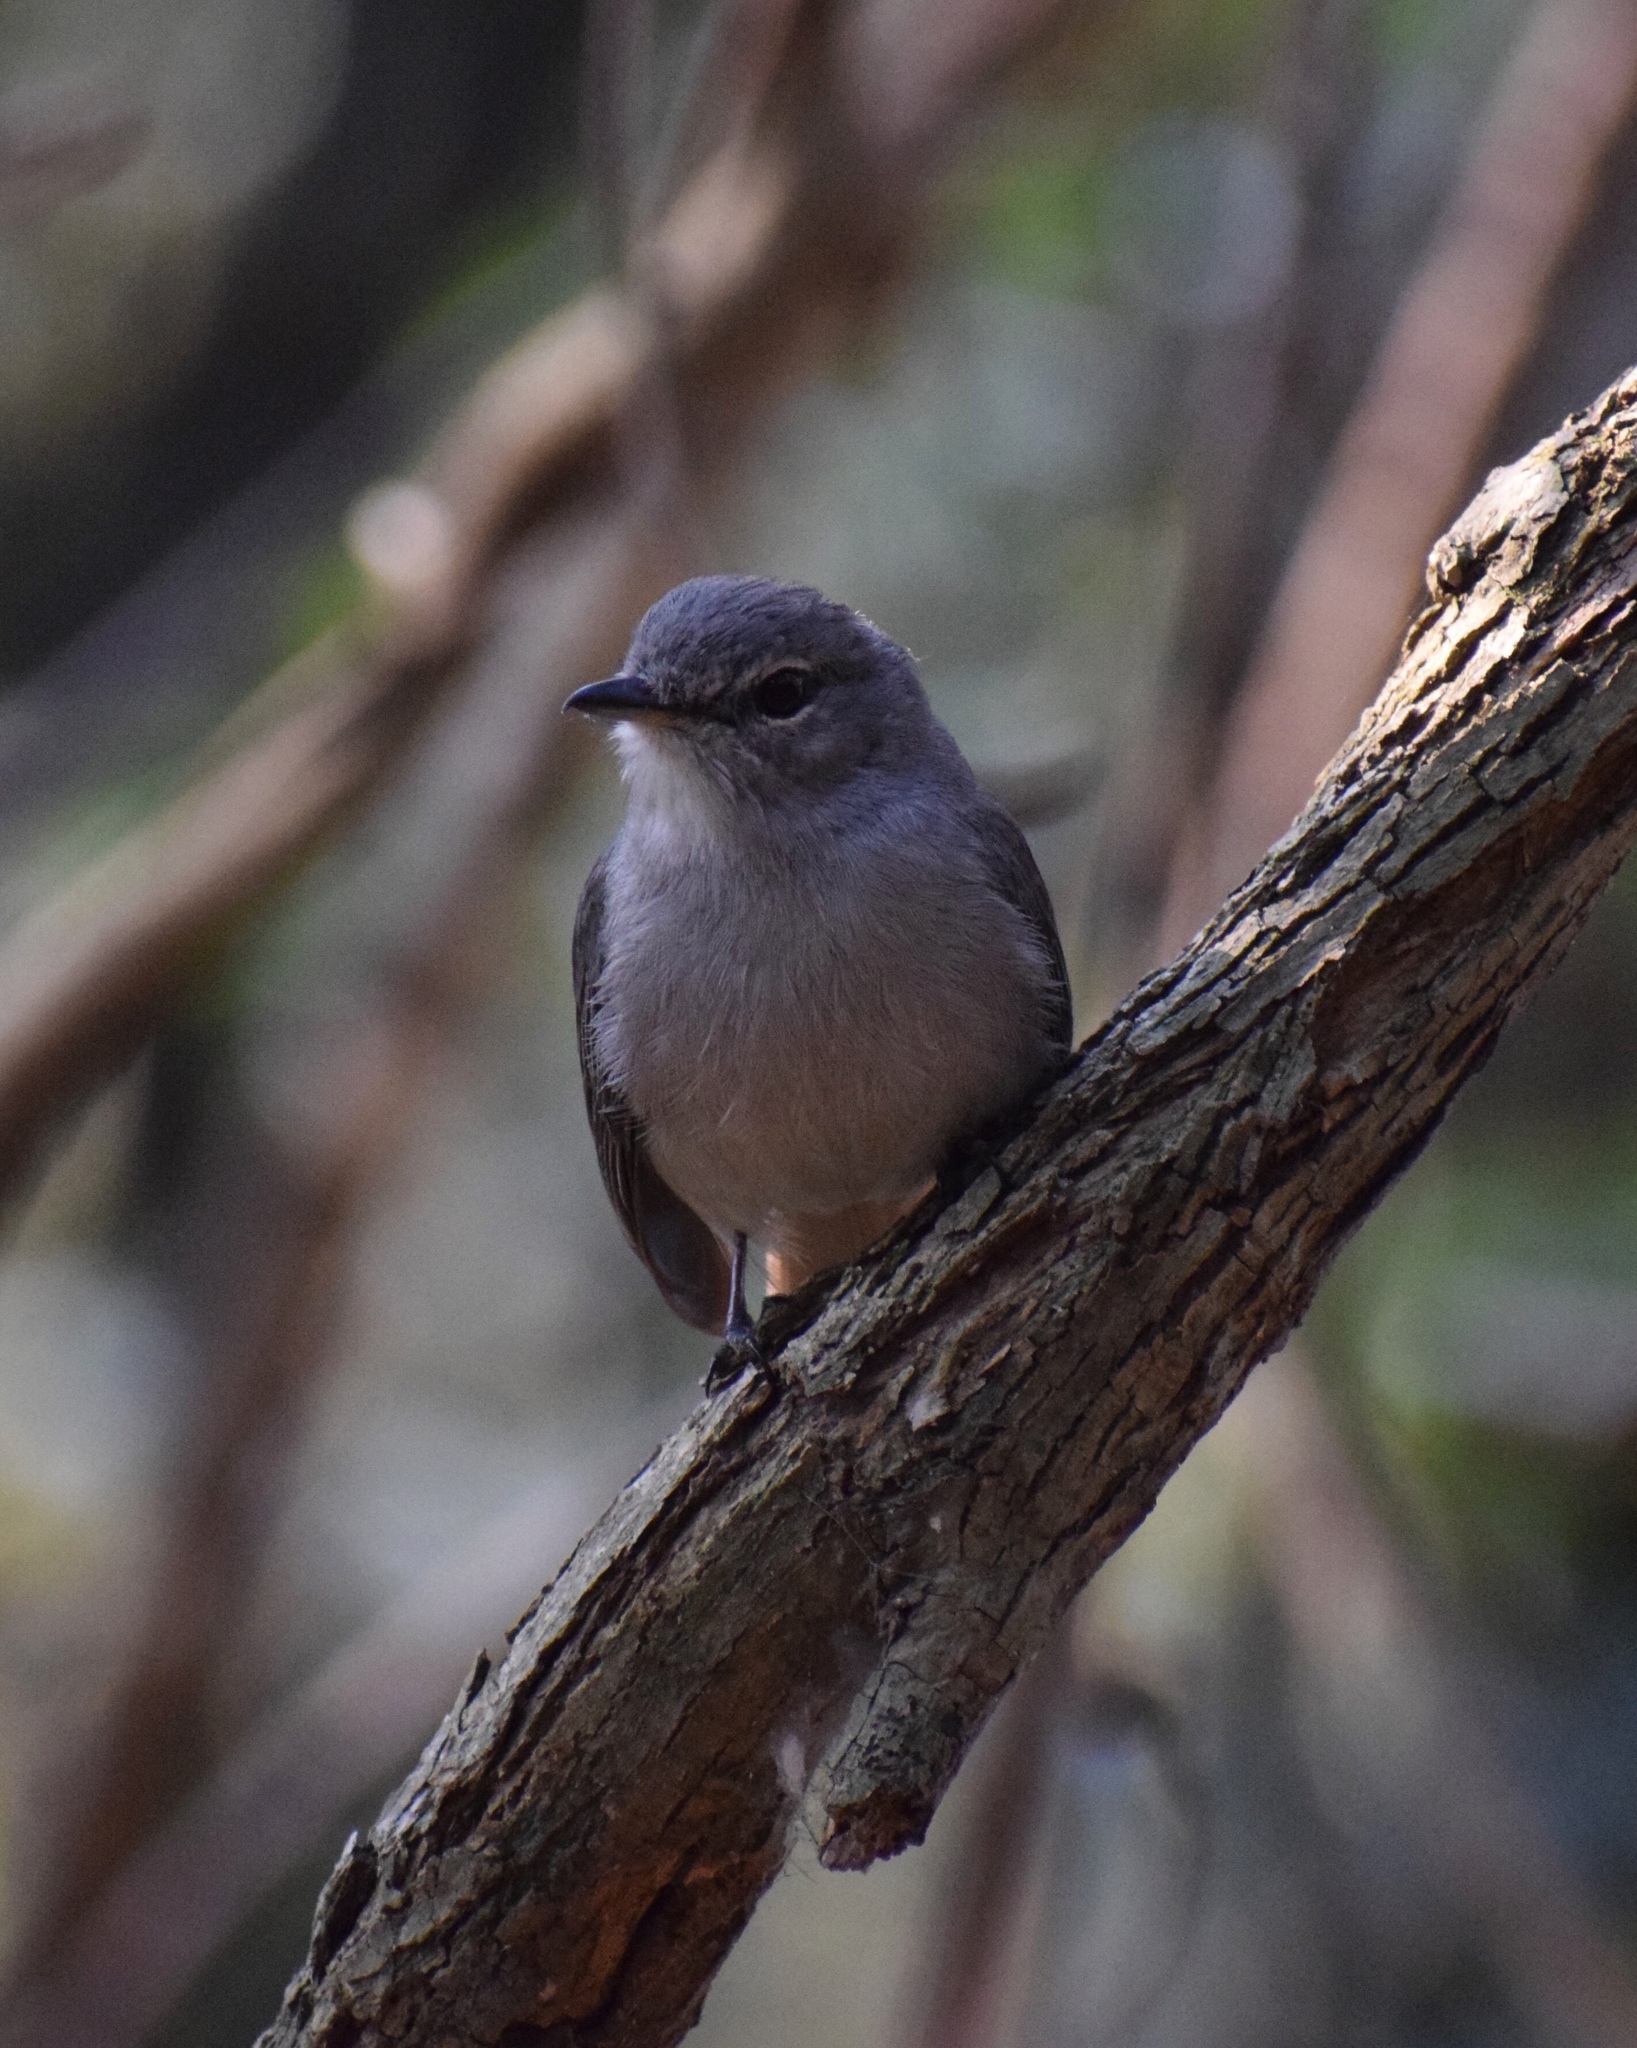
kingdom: Animalia
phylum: Chordata
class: Aves
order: Passeriformes
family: Muscicapidae
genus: Muscicapa
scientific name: Muscicapa adusta
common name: African dusky flycatcher
